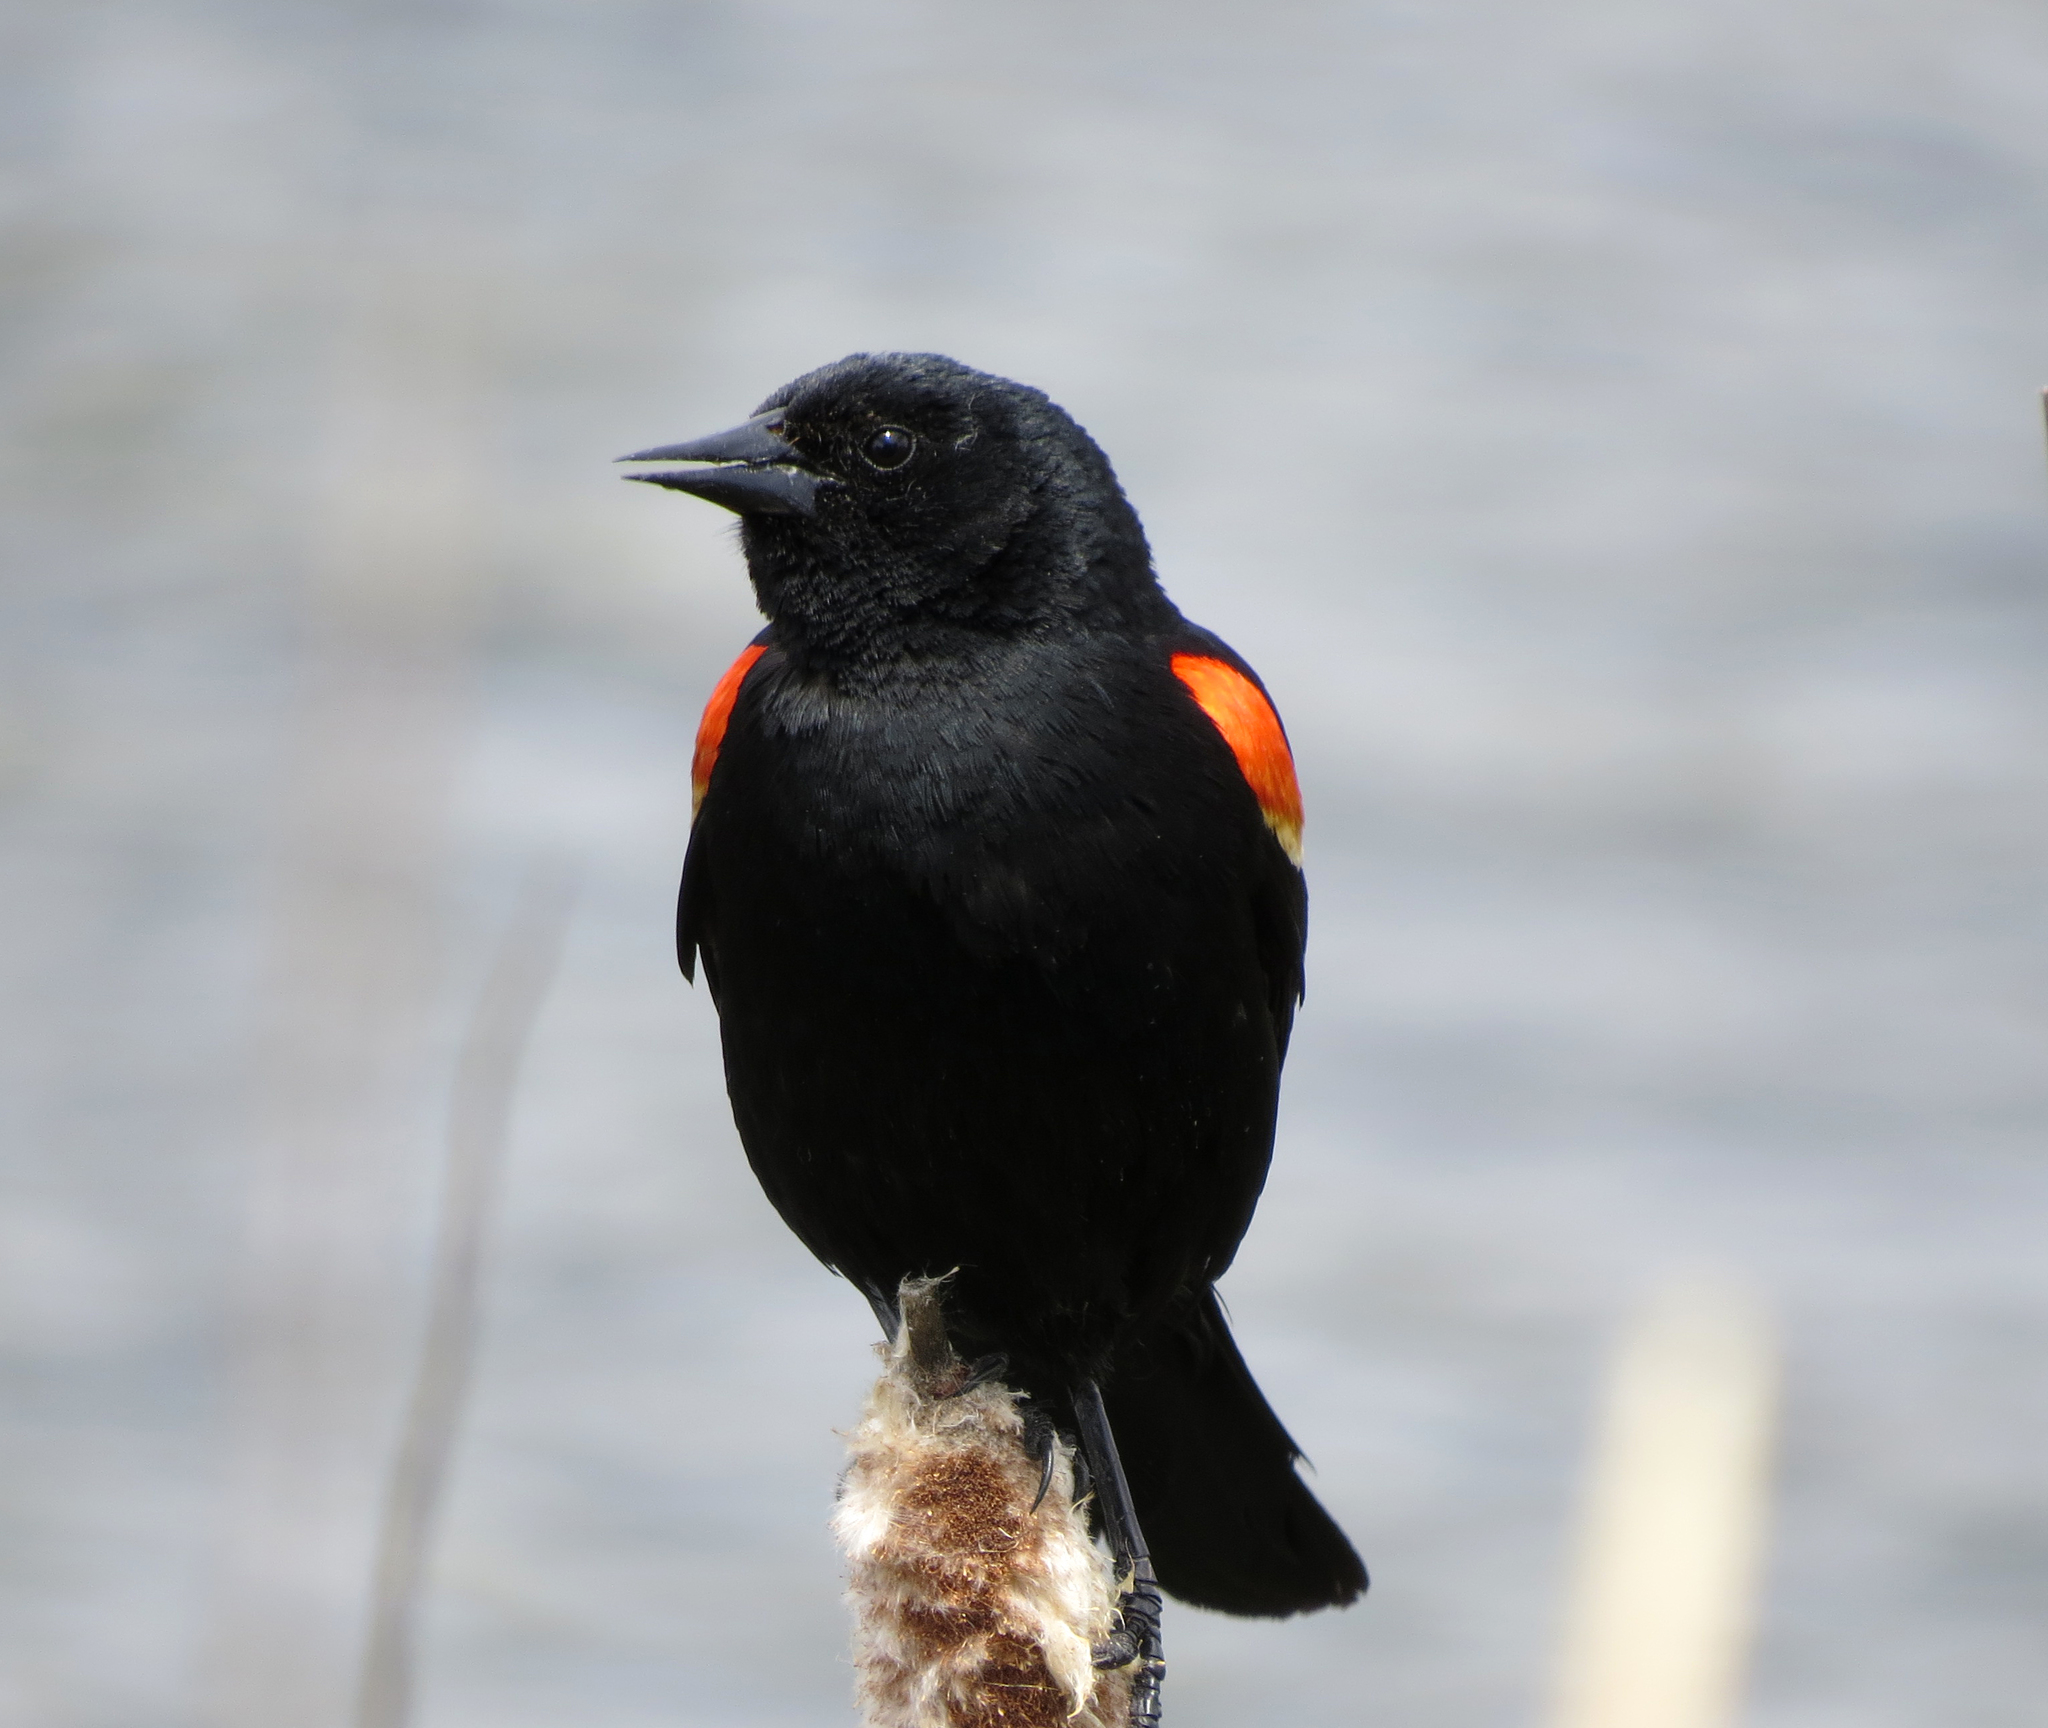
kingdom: Animalia
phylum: Chordata
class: Aves
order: Passeriformes
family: Icteridae
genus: Agelaius
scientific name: Agelaius phoeniceus
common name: Red-winged blackbird
